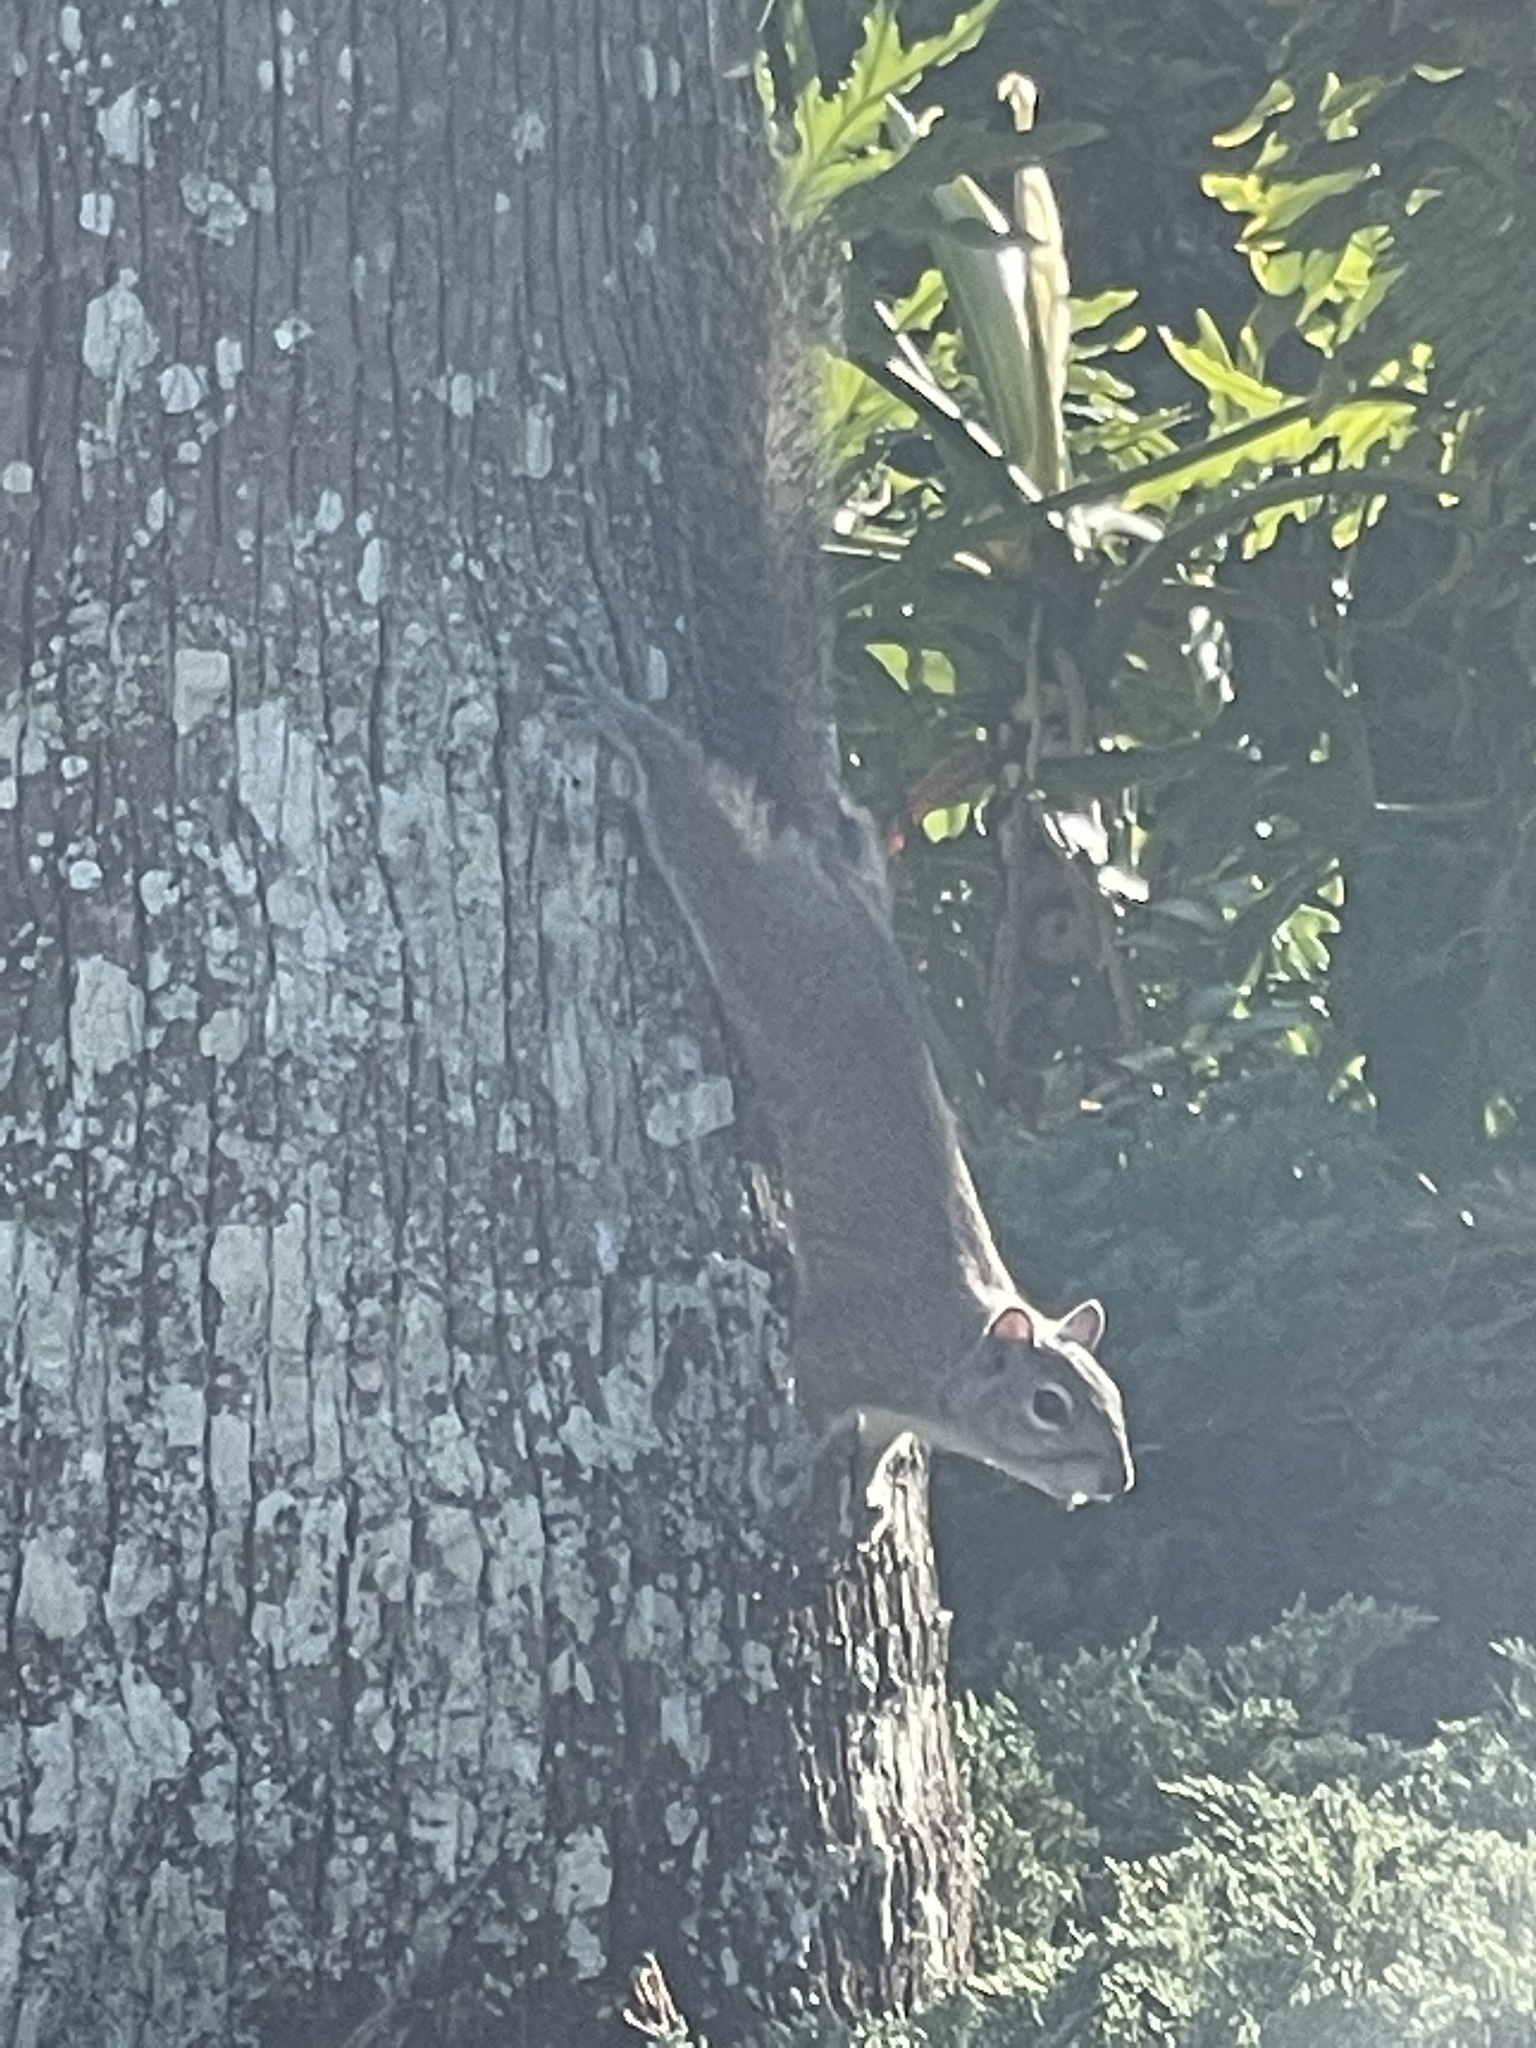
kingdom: Animalia
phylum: Chordata
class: Mammalia
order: Rodentia
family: Sciuridae
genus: Sciurus
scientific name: Sciurus carolinensis
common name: Eastern gray squirrel
